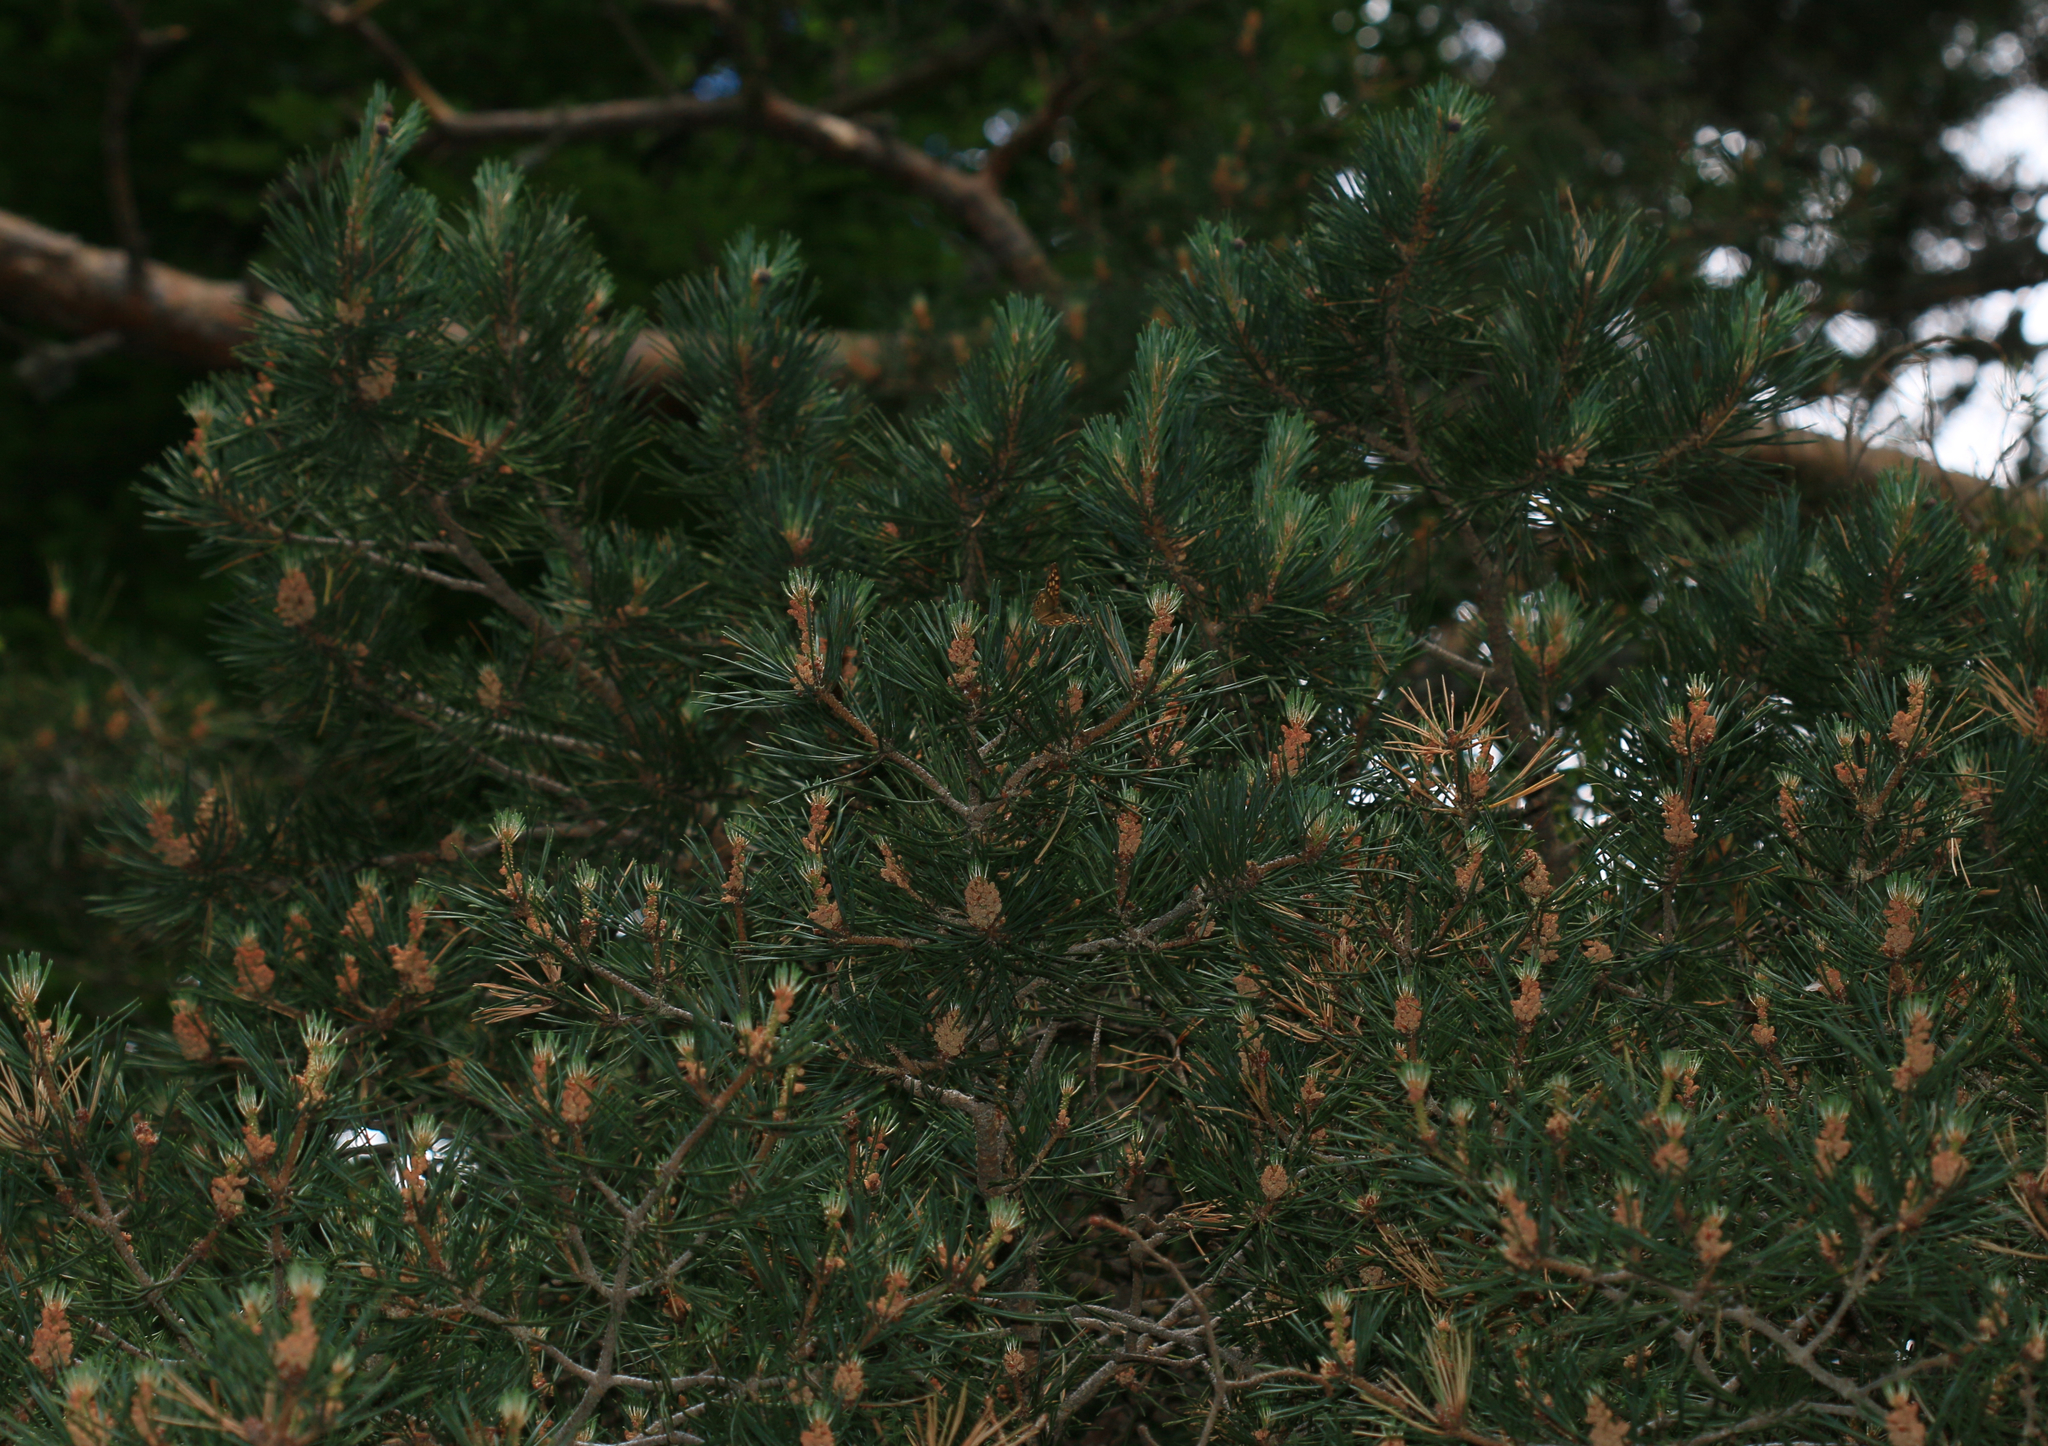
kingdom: Plantae
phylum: Tracheophyta
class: Pinopsida
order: Pinales
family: Pinaceae
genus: Pinus
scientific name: Pinus sylvestris
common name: Scots pine
